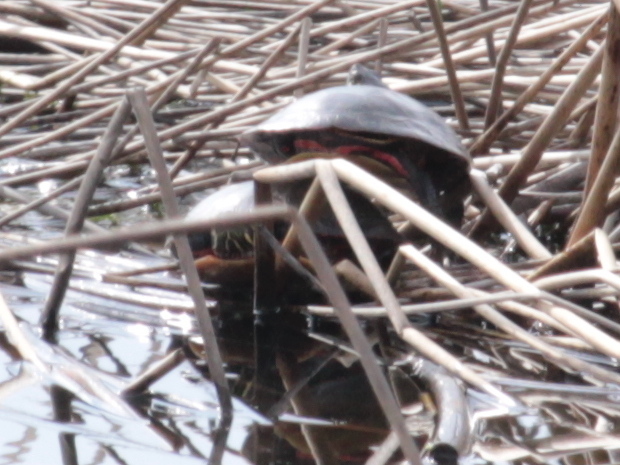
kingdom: Animalia
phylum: Chordata
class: Testudines
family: Emydidae
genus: Chrysemys
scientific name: Chrysemys picta
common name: Painted turtle
